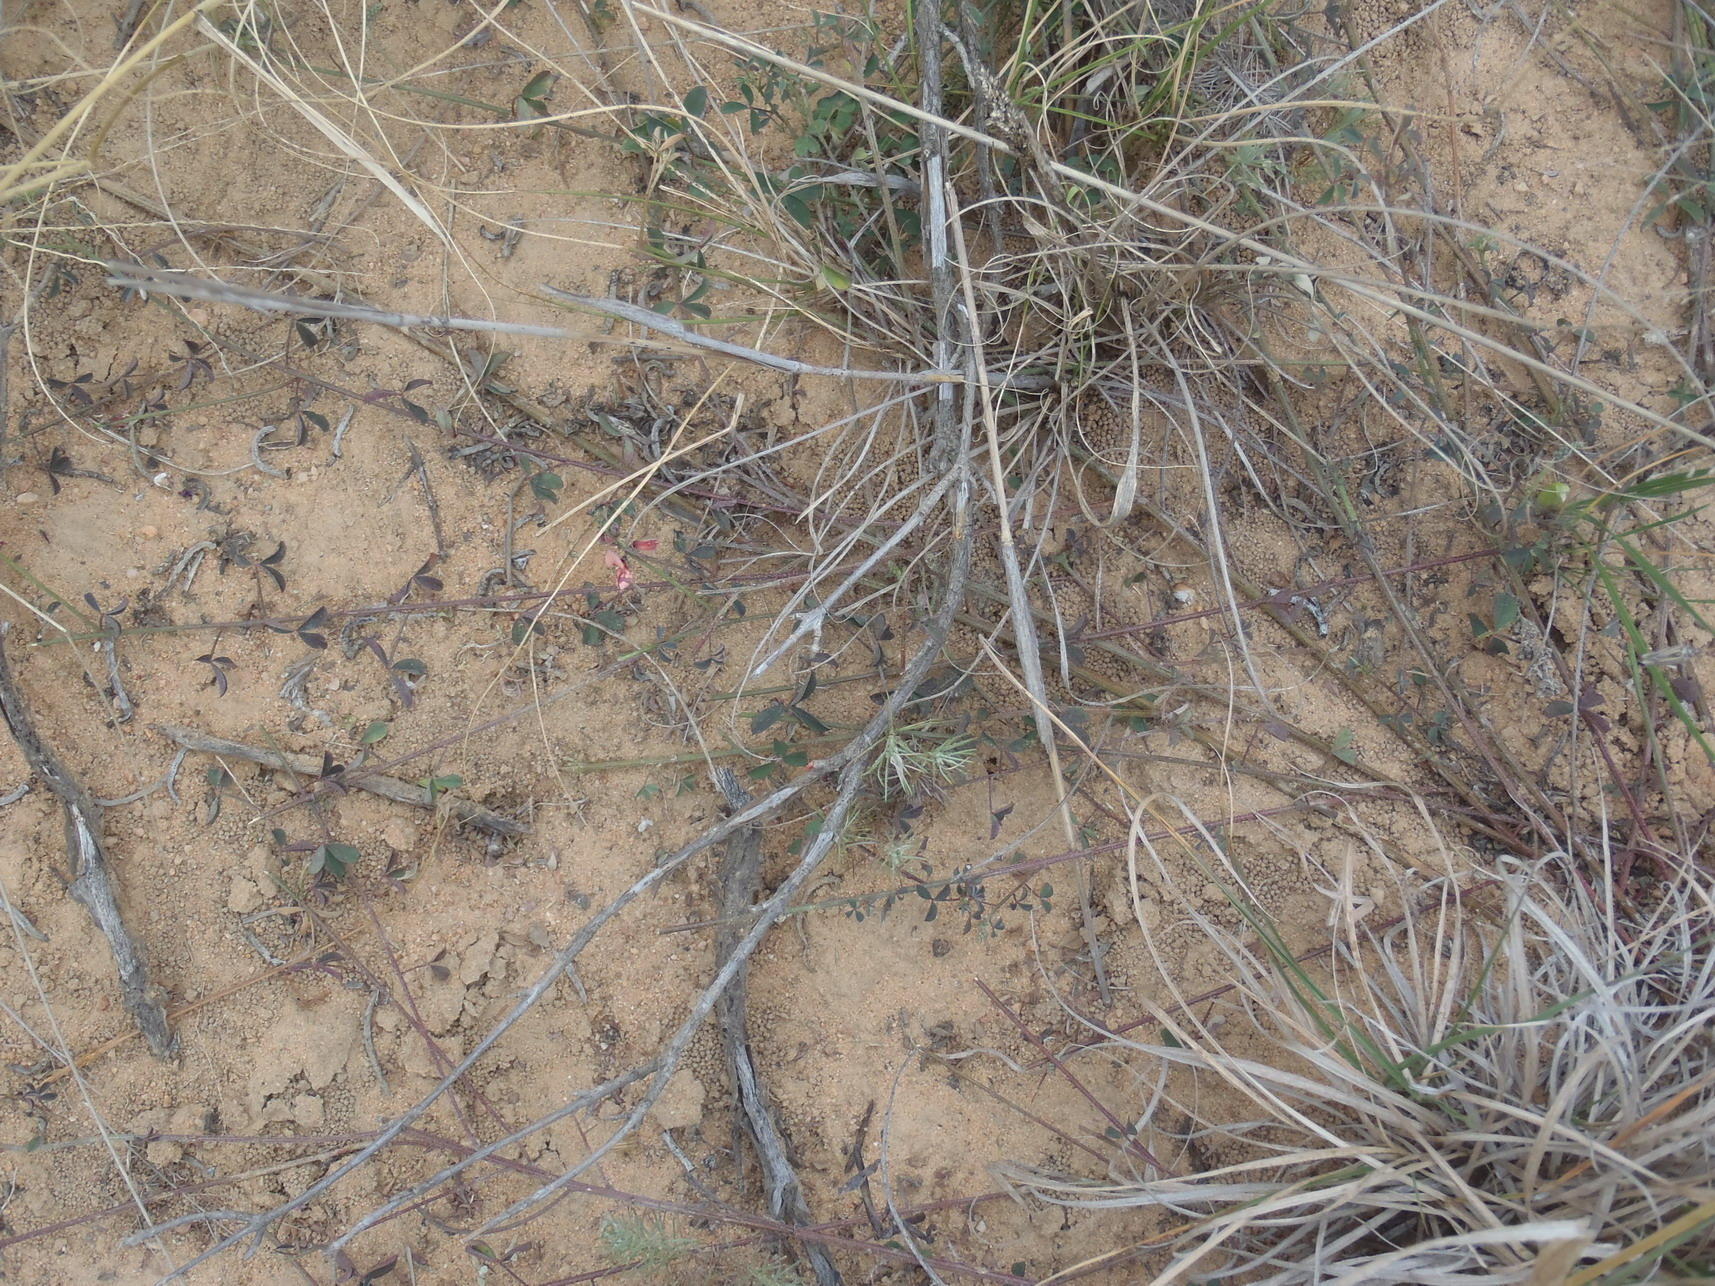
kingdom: Plantae
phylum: Tracheophyta
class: Magnoliopsida
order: Fabales
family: Fabaceae
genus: Indigofera
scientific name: Indigofera heterophylla
